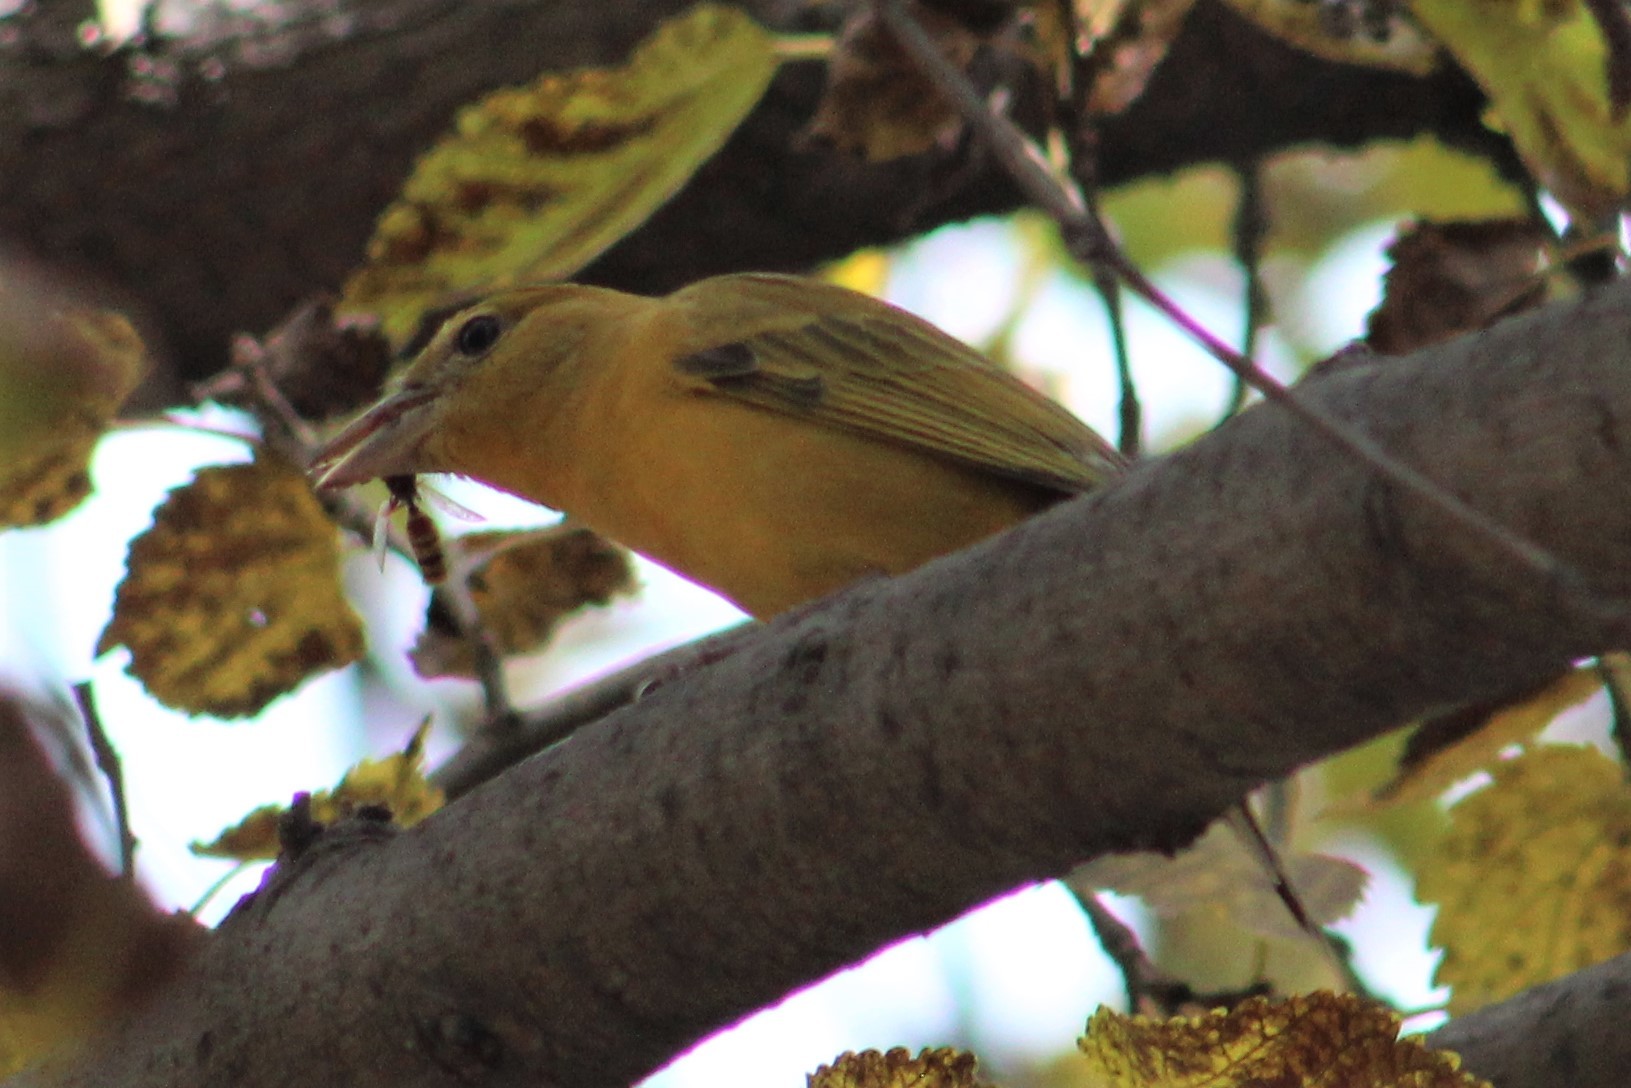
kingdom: Animalia
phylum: Chordata
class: Aves
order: Passeriformes
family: Cardinalidae
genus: Piranga
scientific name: Piranga rubra
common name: Summer tanager
